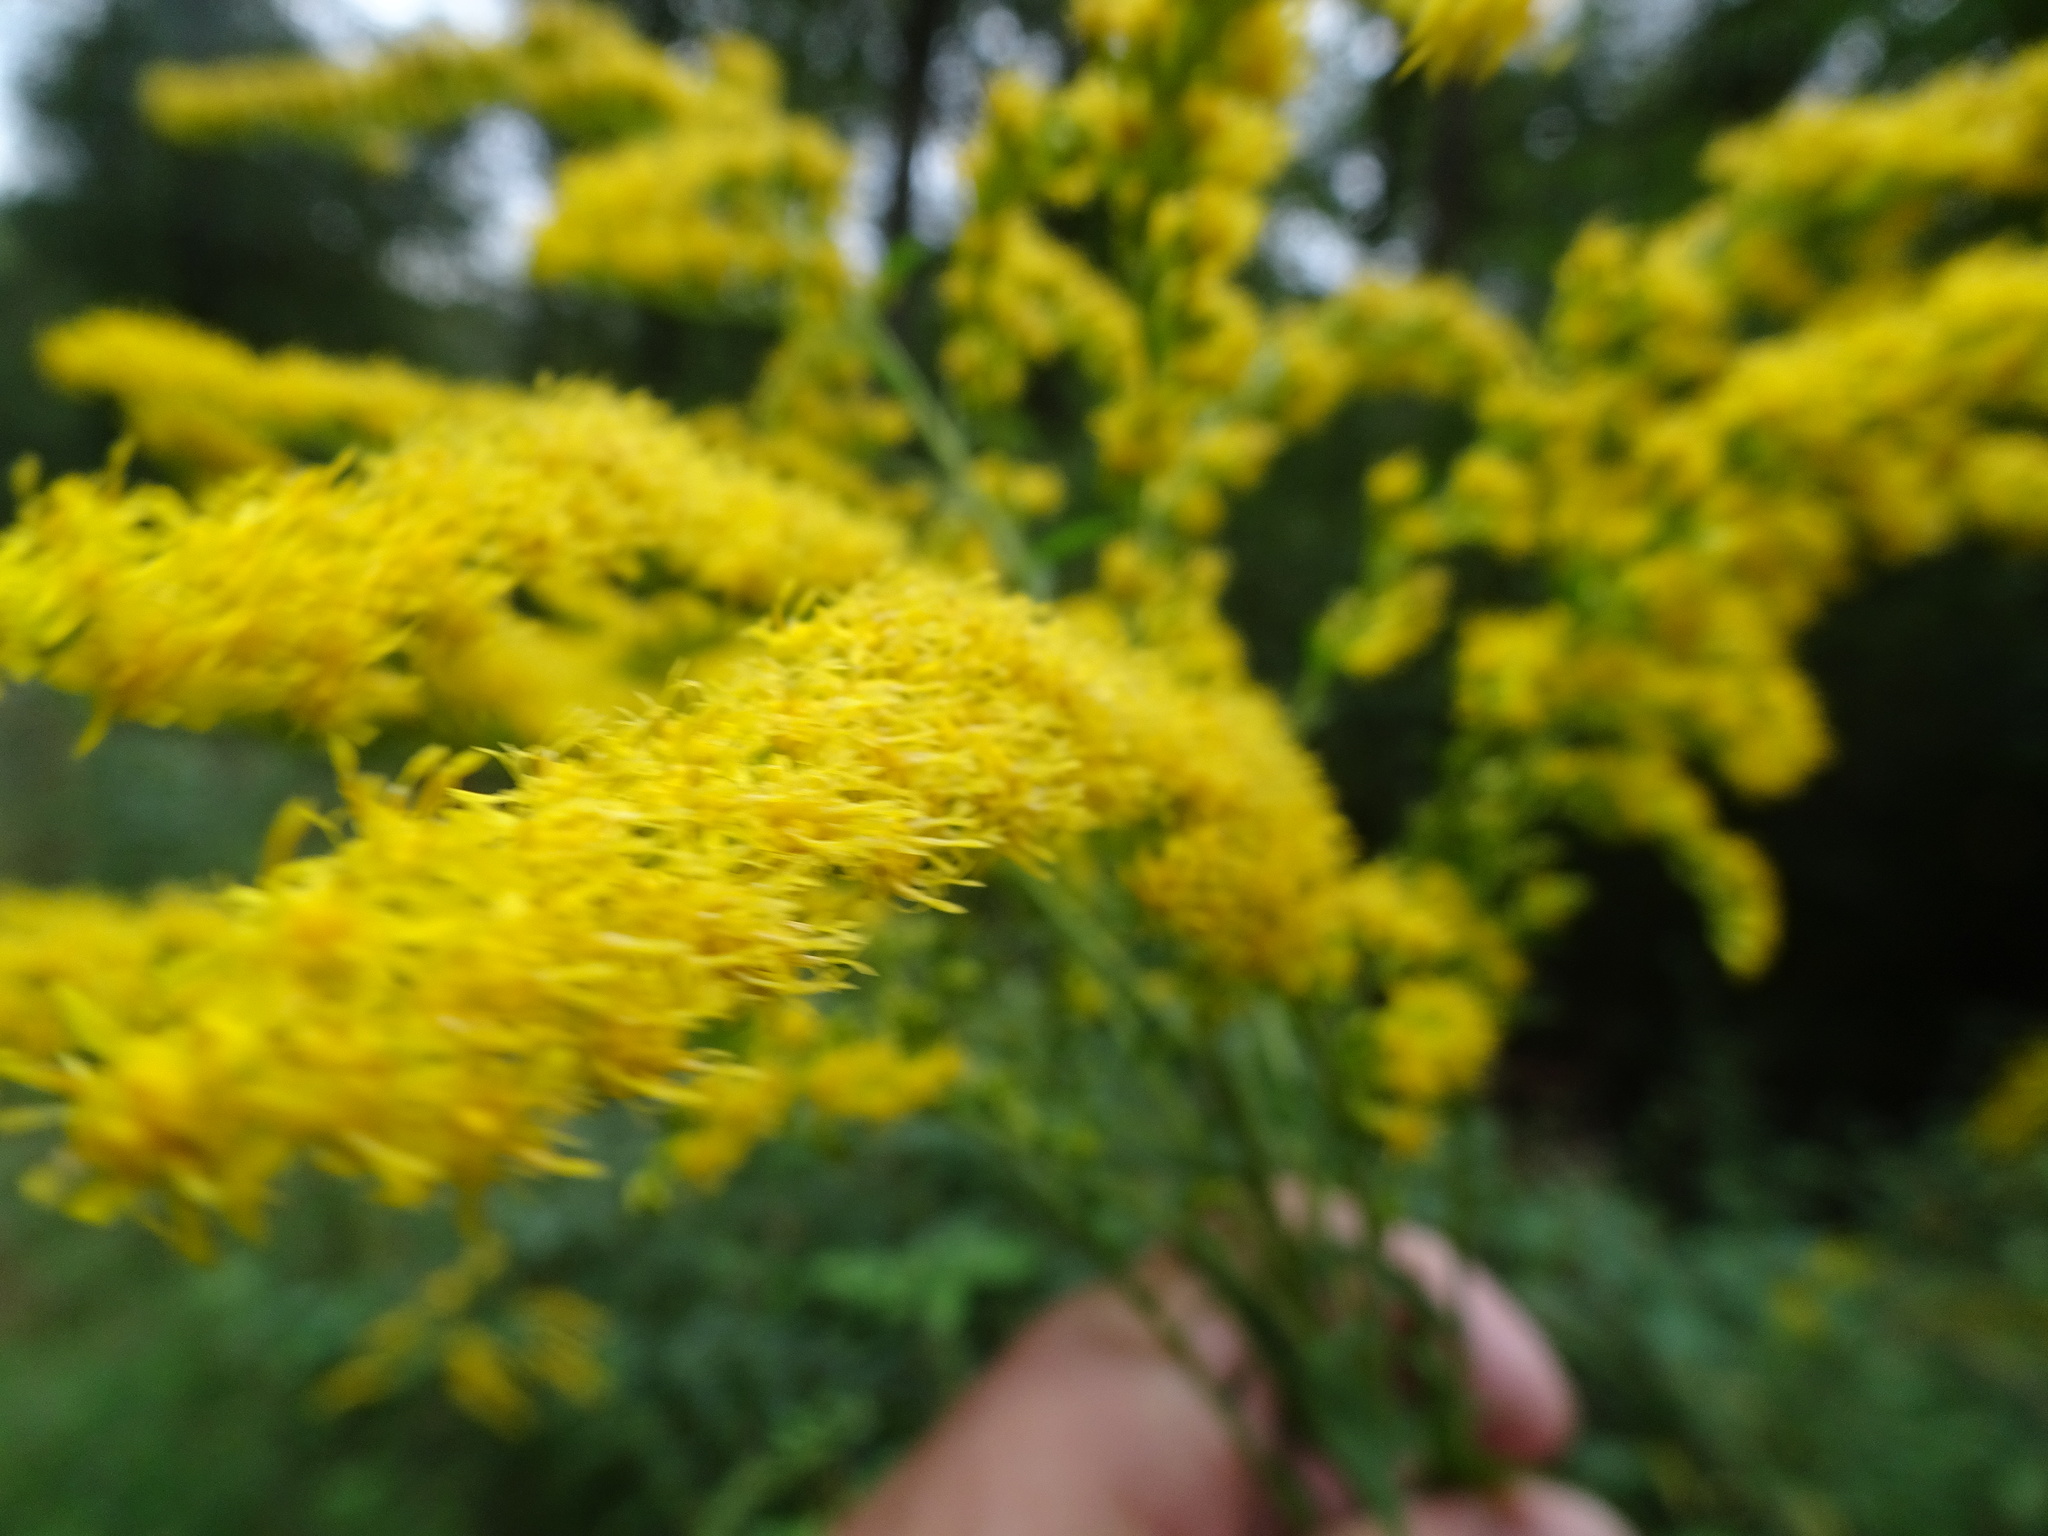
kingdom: Plantae
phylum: Tracheophyta
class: Magnoliopsida
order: Asterales
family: Asteraceae
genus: Solidago
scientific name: Solidago canadensis
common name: Canada goldenrod
